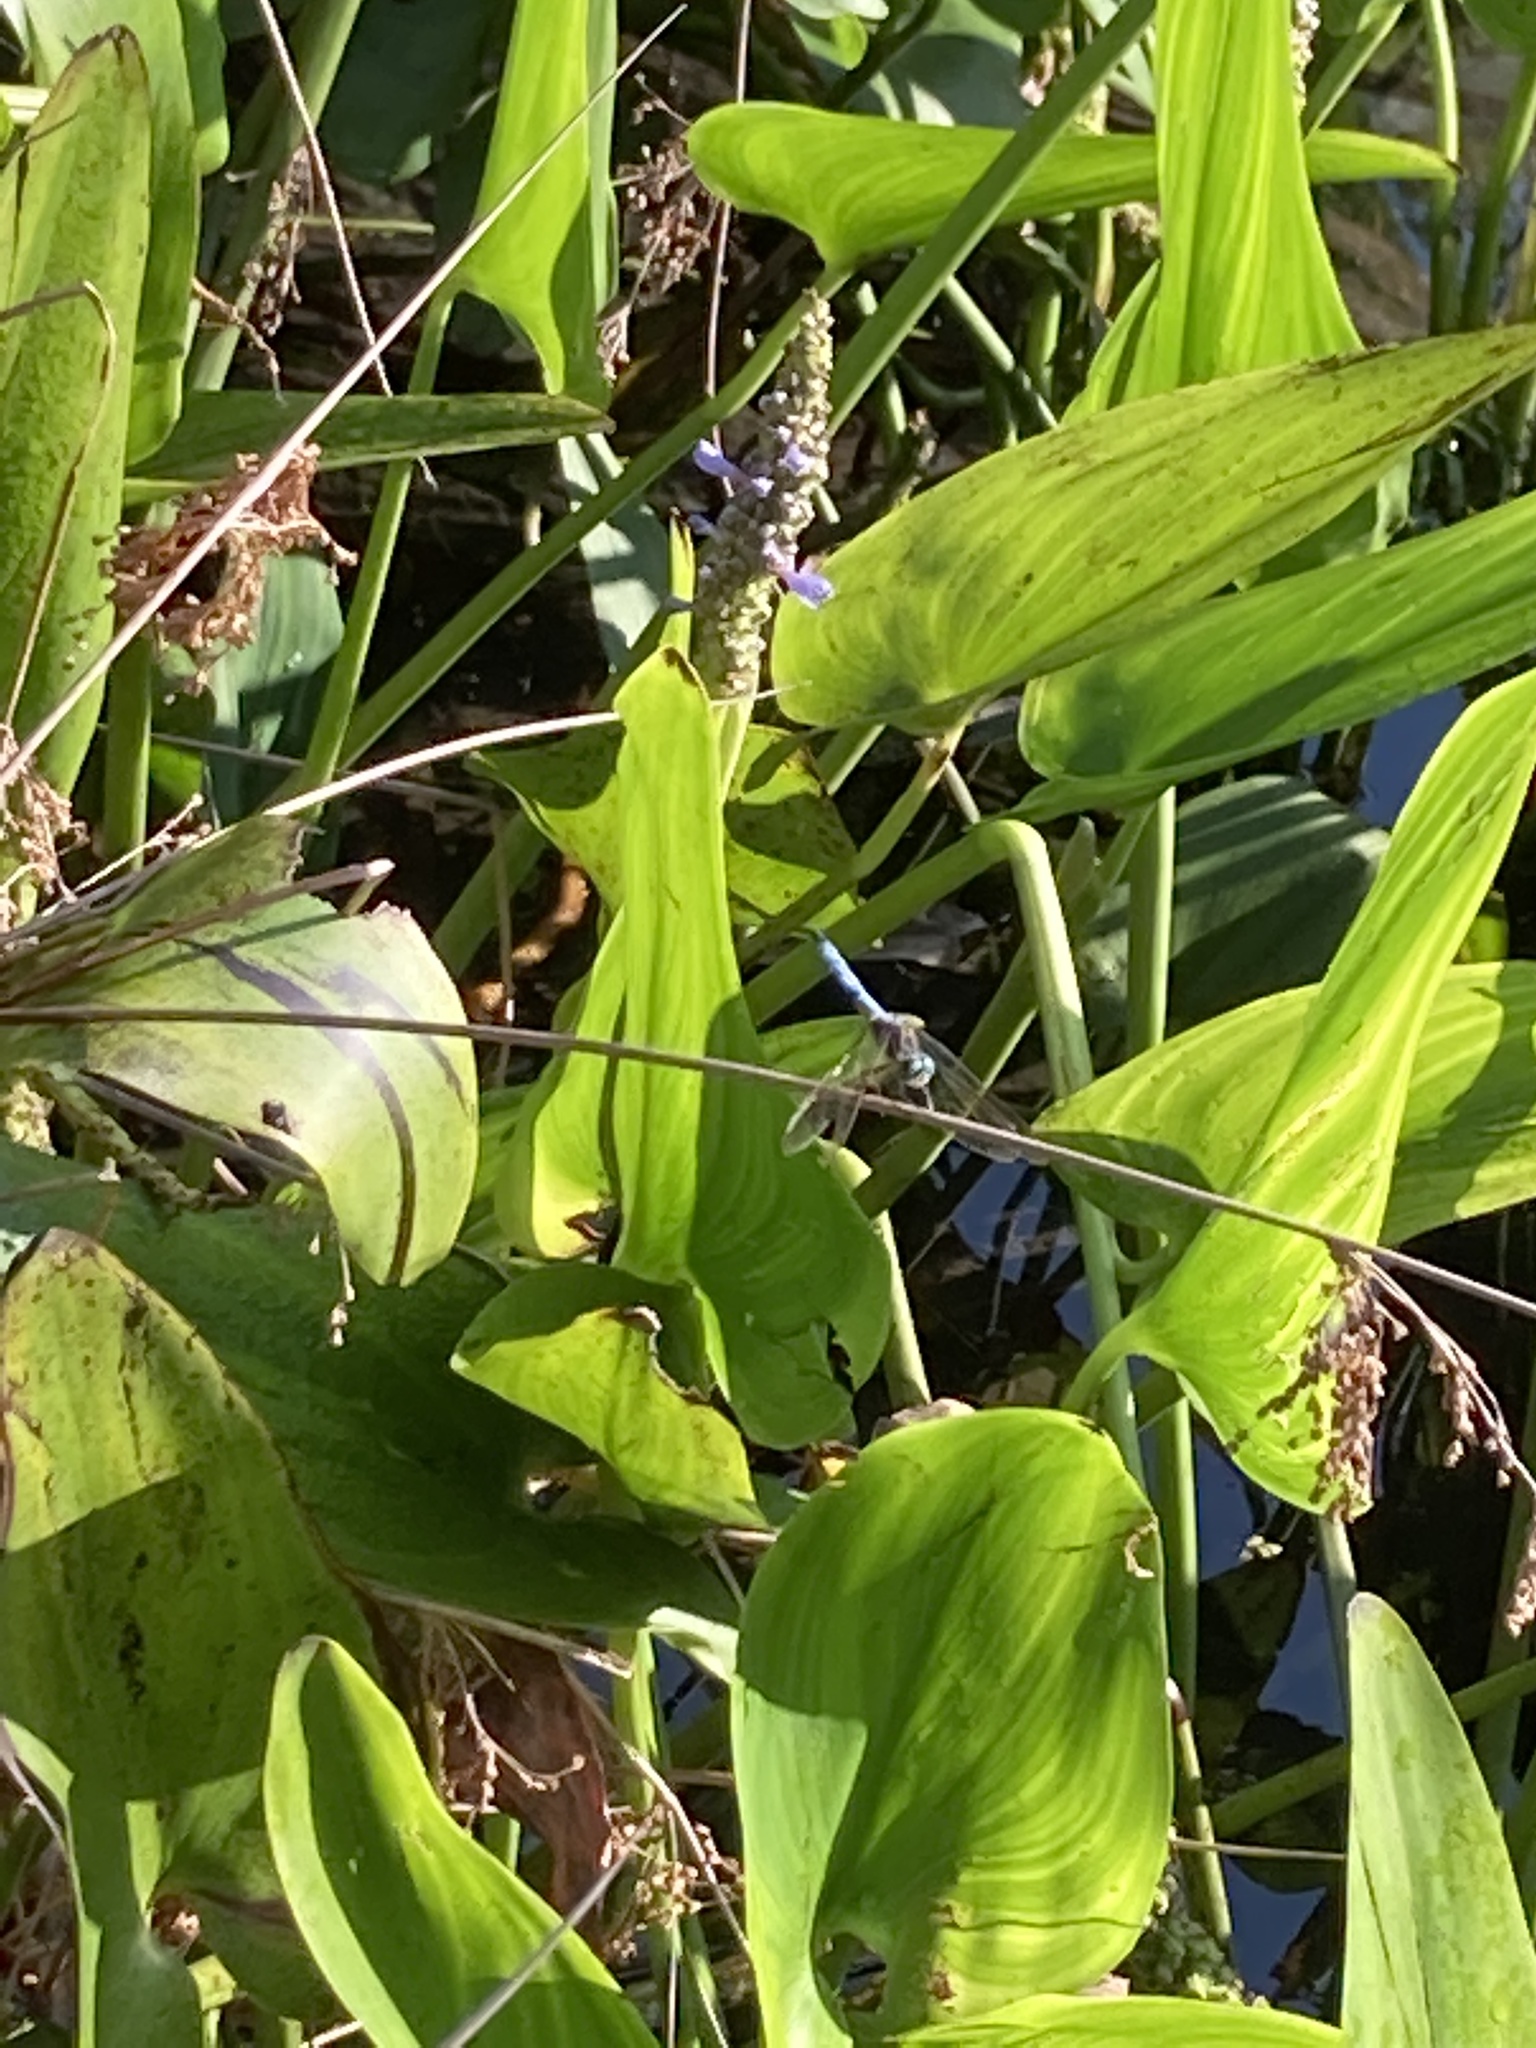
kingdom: Animalia
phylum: Arthropoda
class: Insecta
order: Odonata
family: Libellulidae
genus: Pachydiplax
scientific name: Pachydiplax longipennis
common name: Blue dasher
